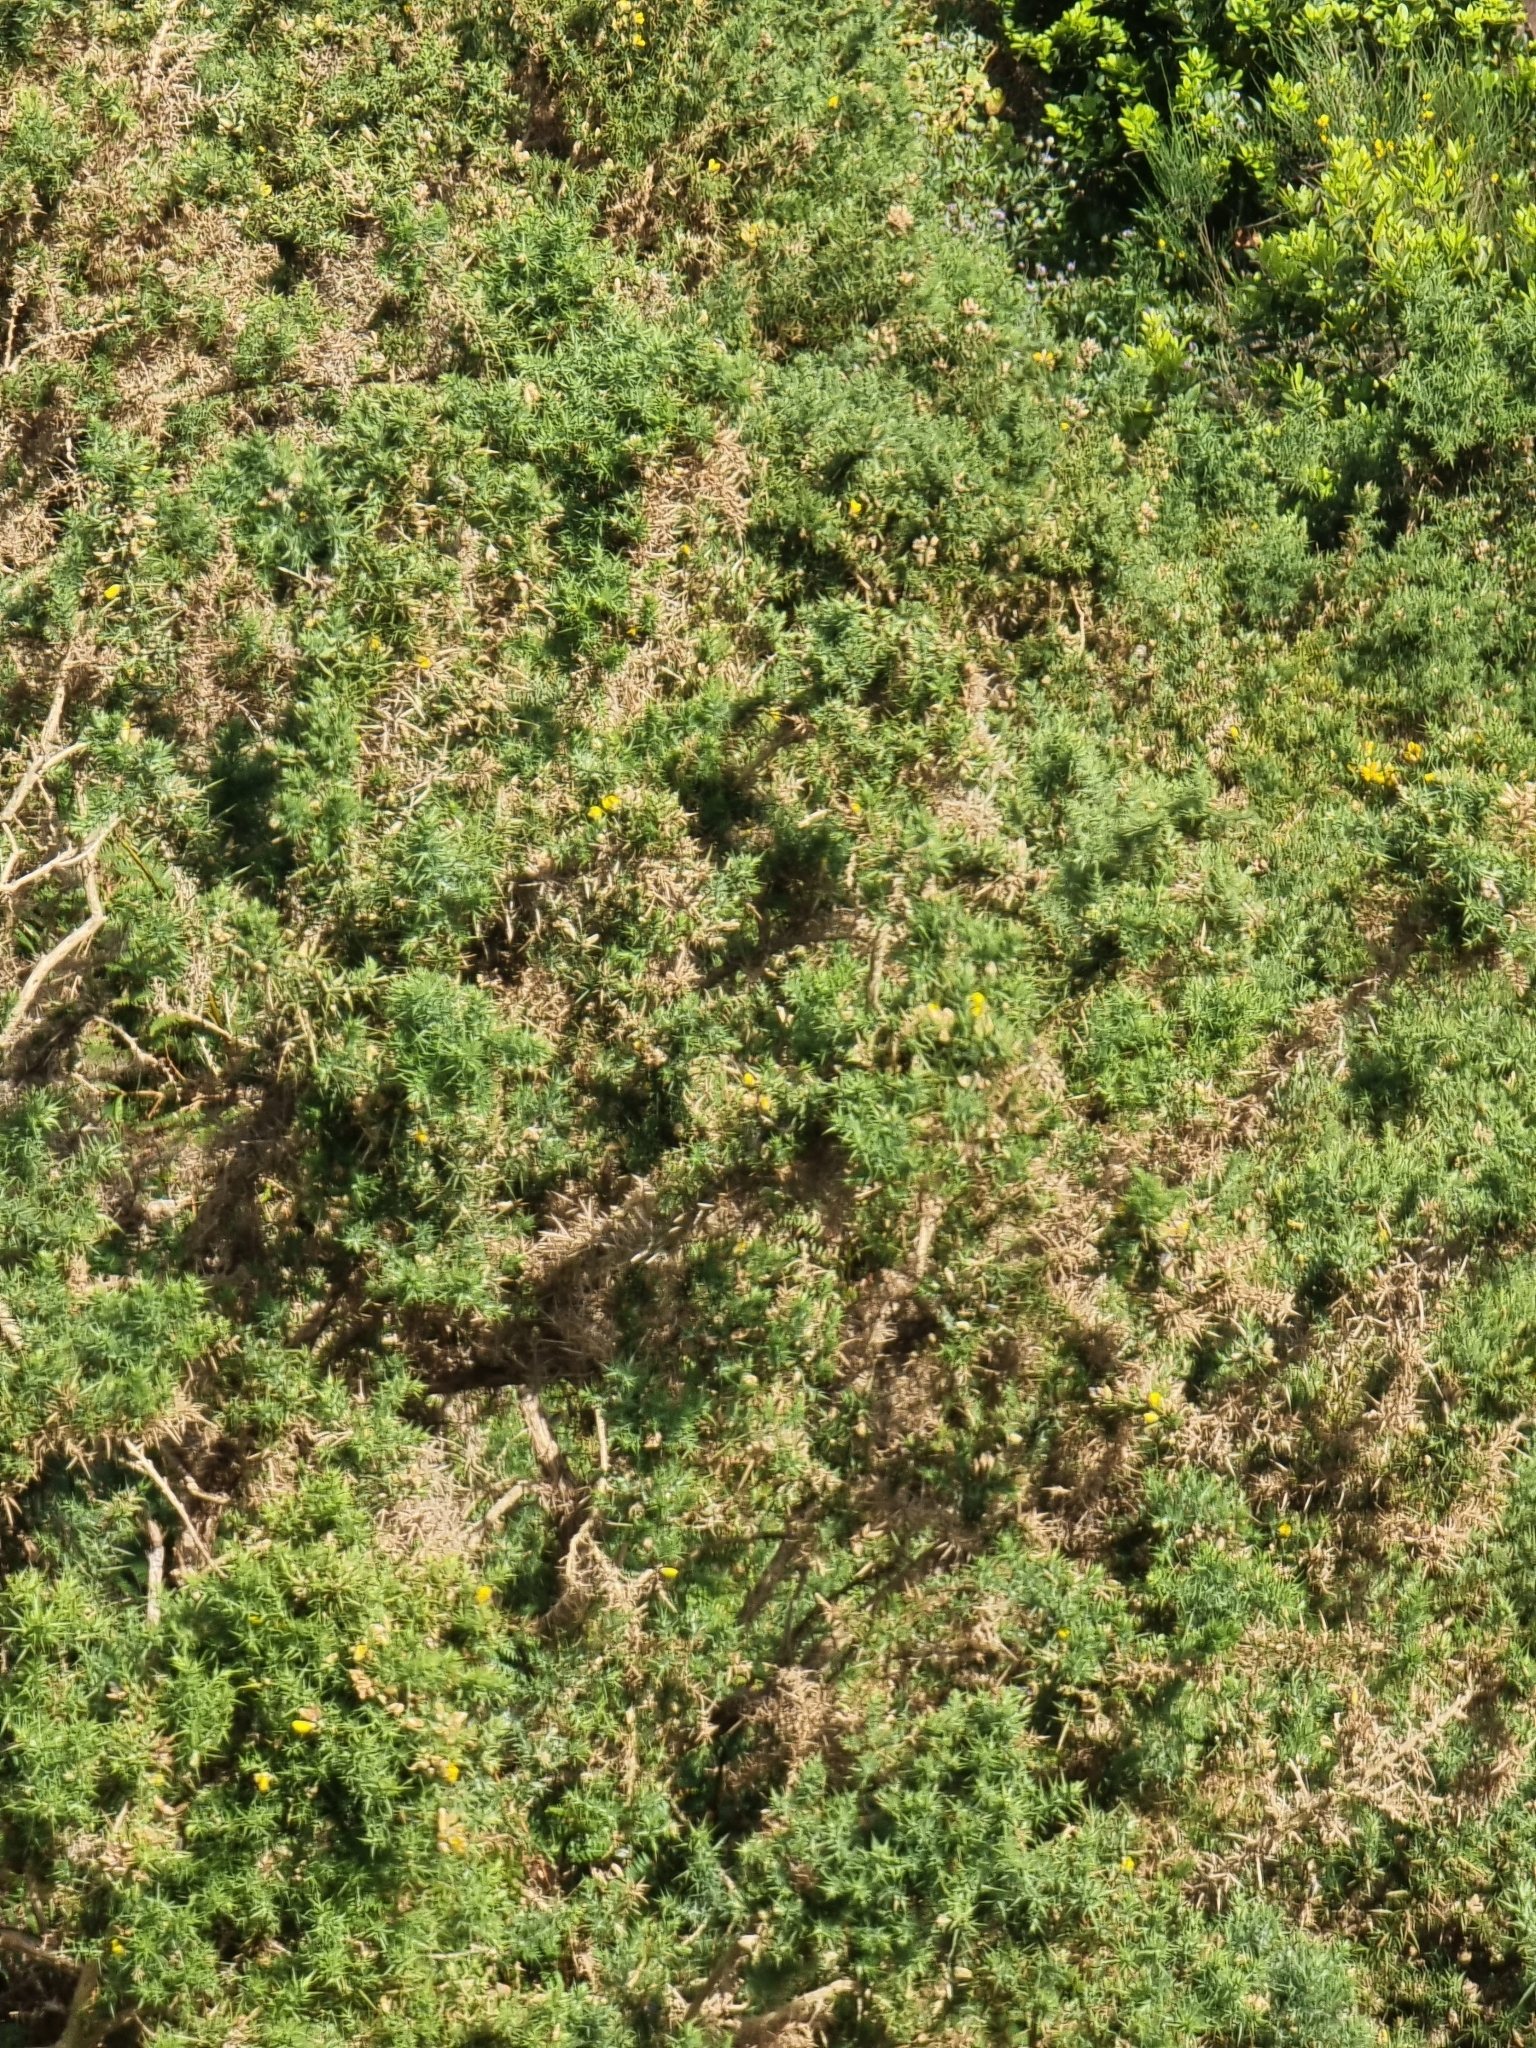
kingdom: Plantae
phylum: Tracheophyta
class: Magnoliopsida
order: Fabales
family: Fabaceae
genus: Ulex
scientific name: Ulex europaeus
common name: Common gorse
